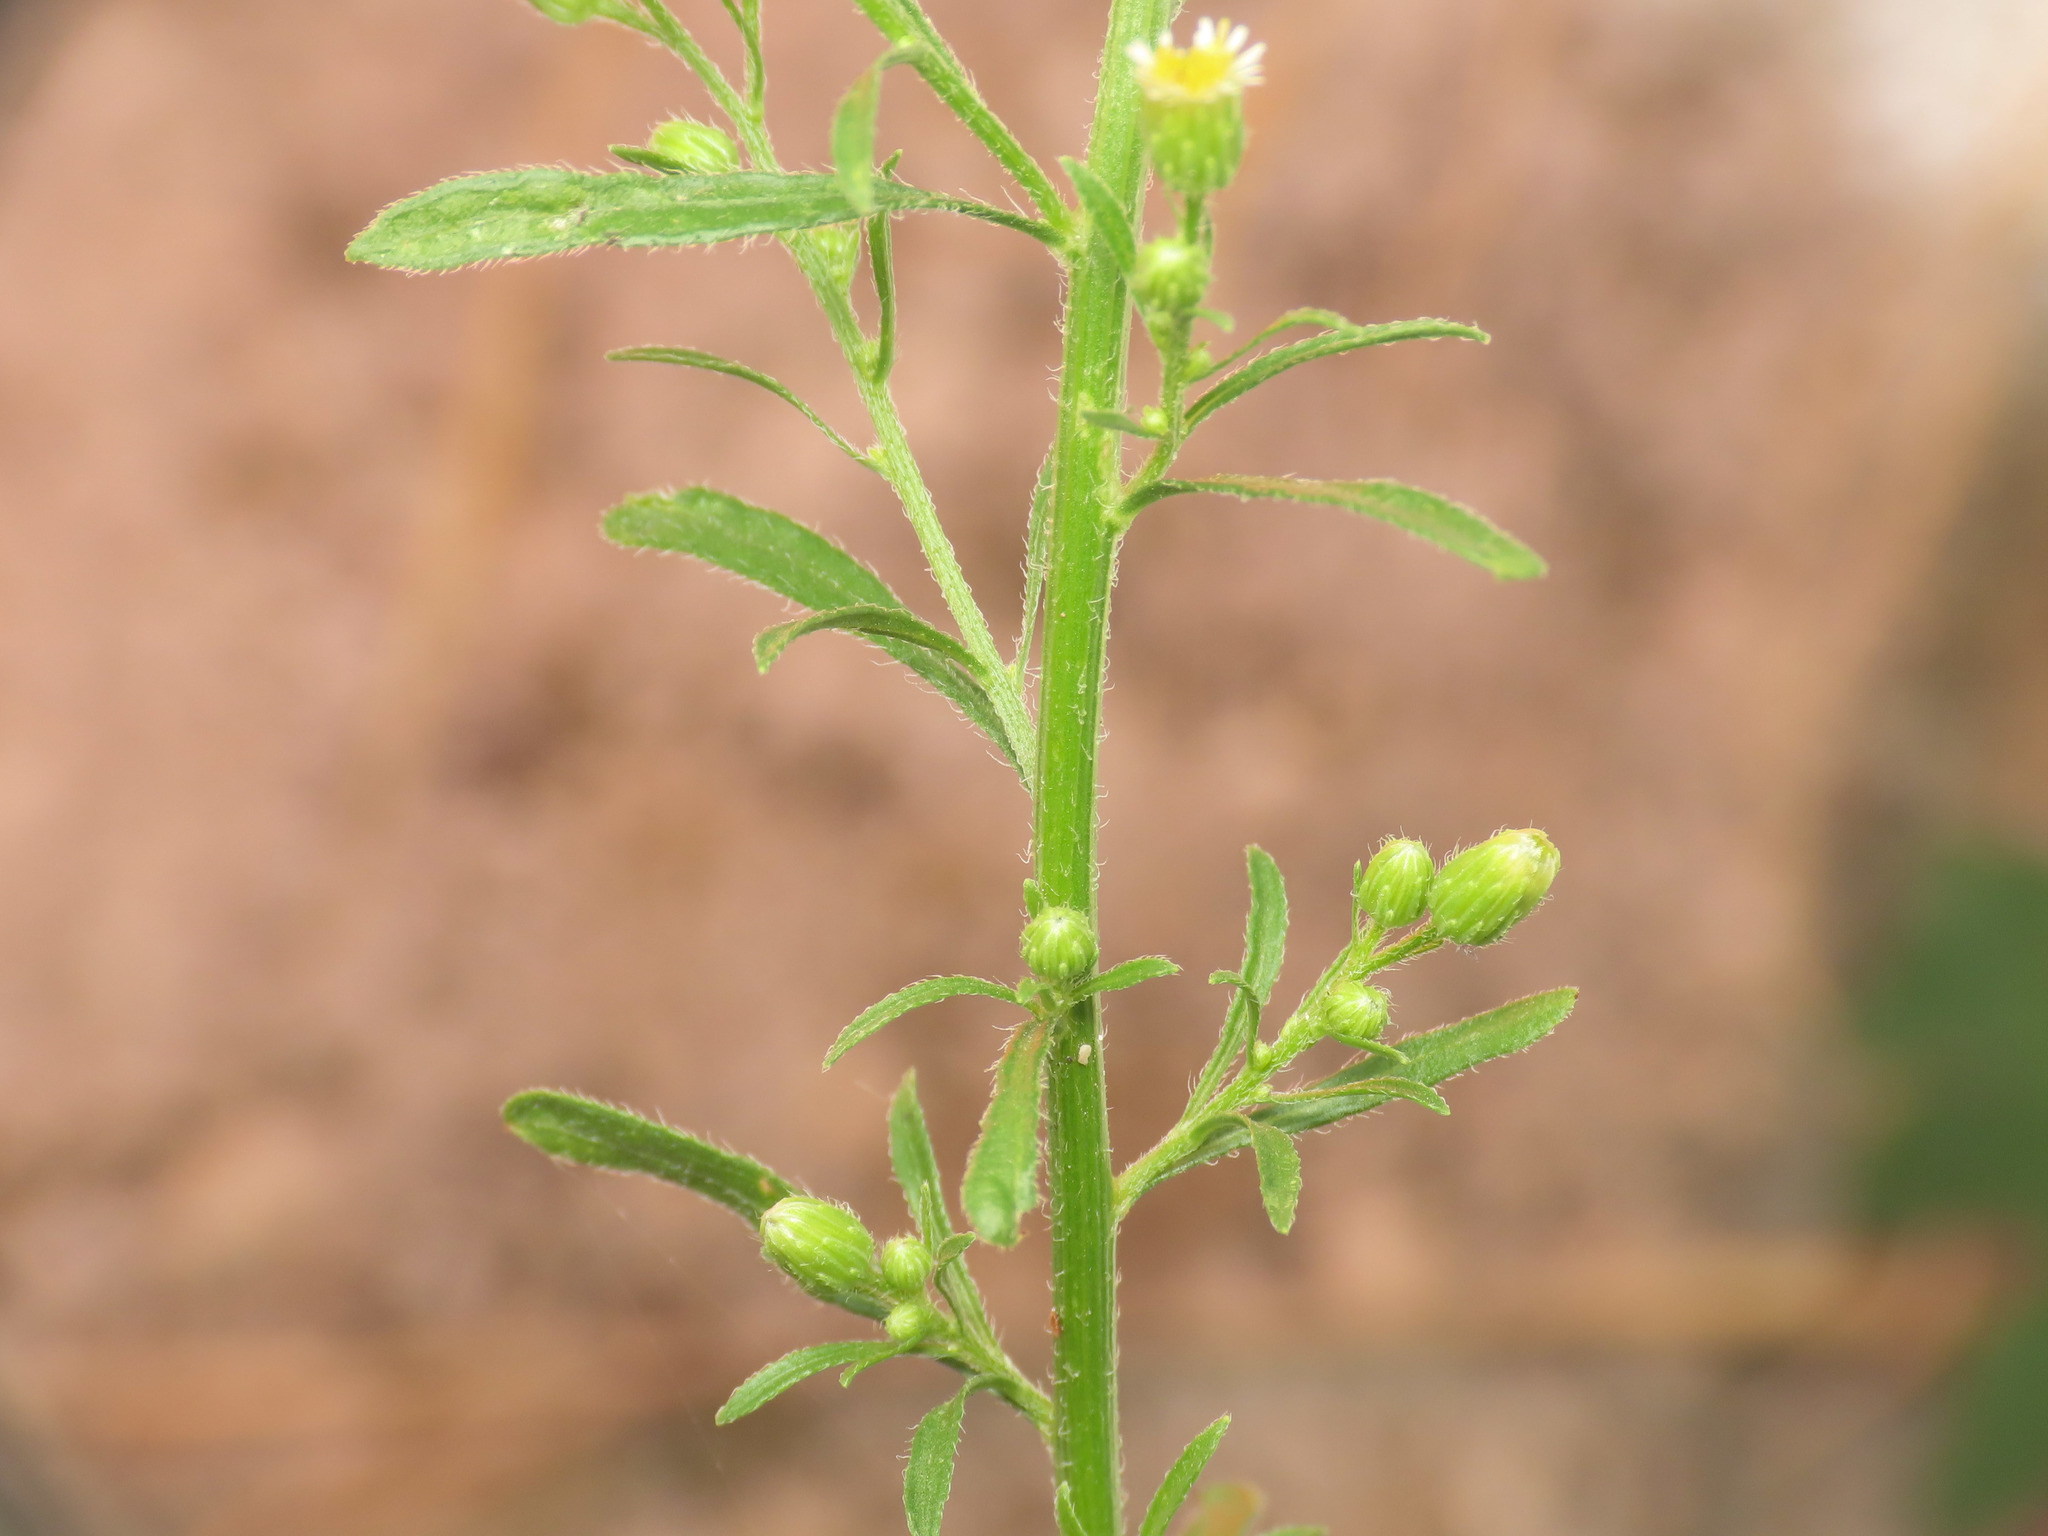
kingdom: Plantae
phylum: Tracheophyta
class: Magnoliopsida
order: Asterales
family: Asteraceae
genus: Erigeron
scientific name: Erigeron canadensis
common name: Canadian fleabane
